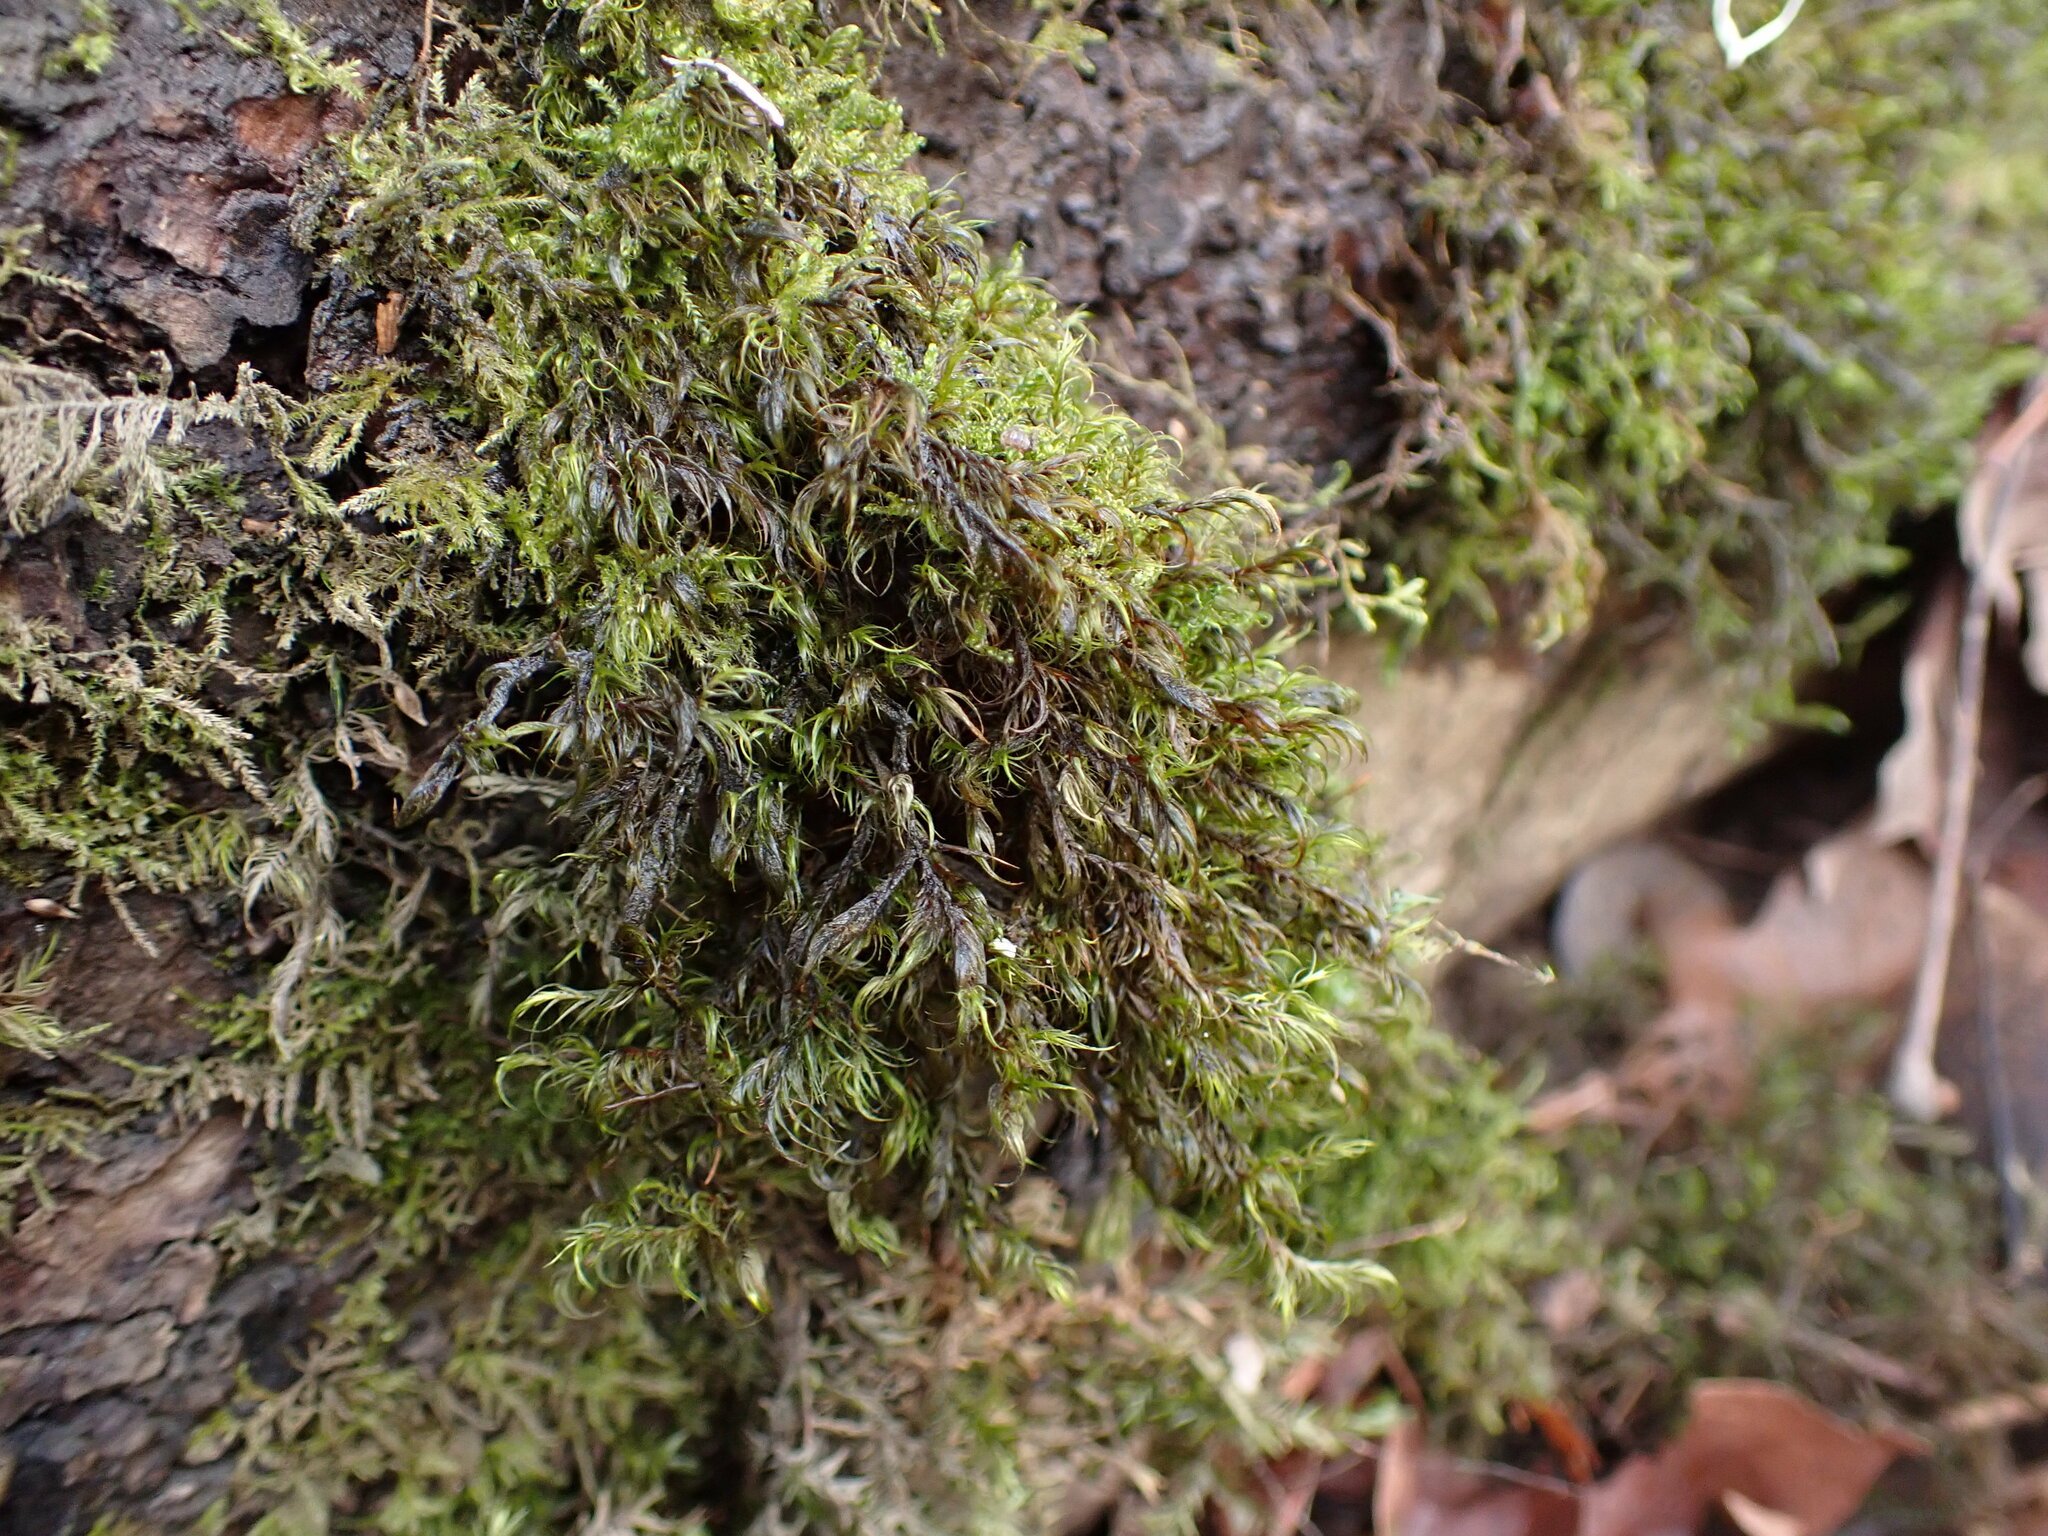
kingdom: Plantae
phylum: Bryophyta
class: Bryopsida
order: Hypnales
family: Fontinalaceae
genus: Dichelyma
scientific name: Dichelyma uncinatum
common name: Sickle-leaved claw moss
